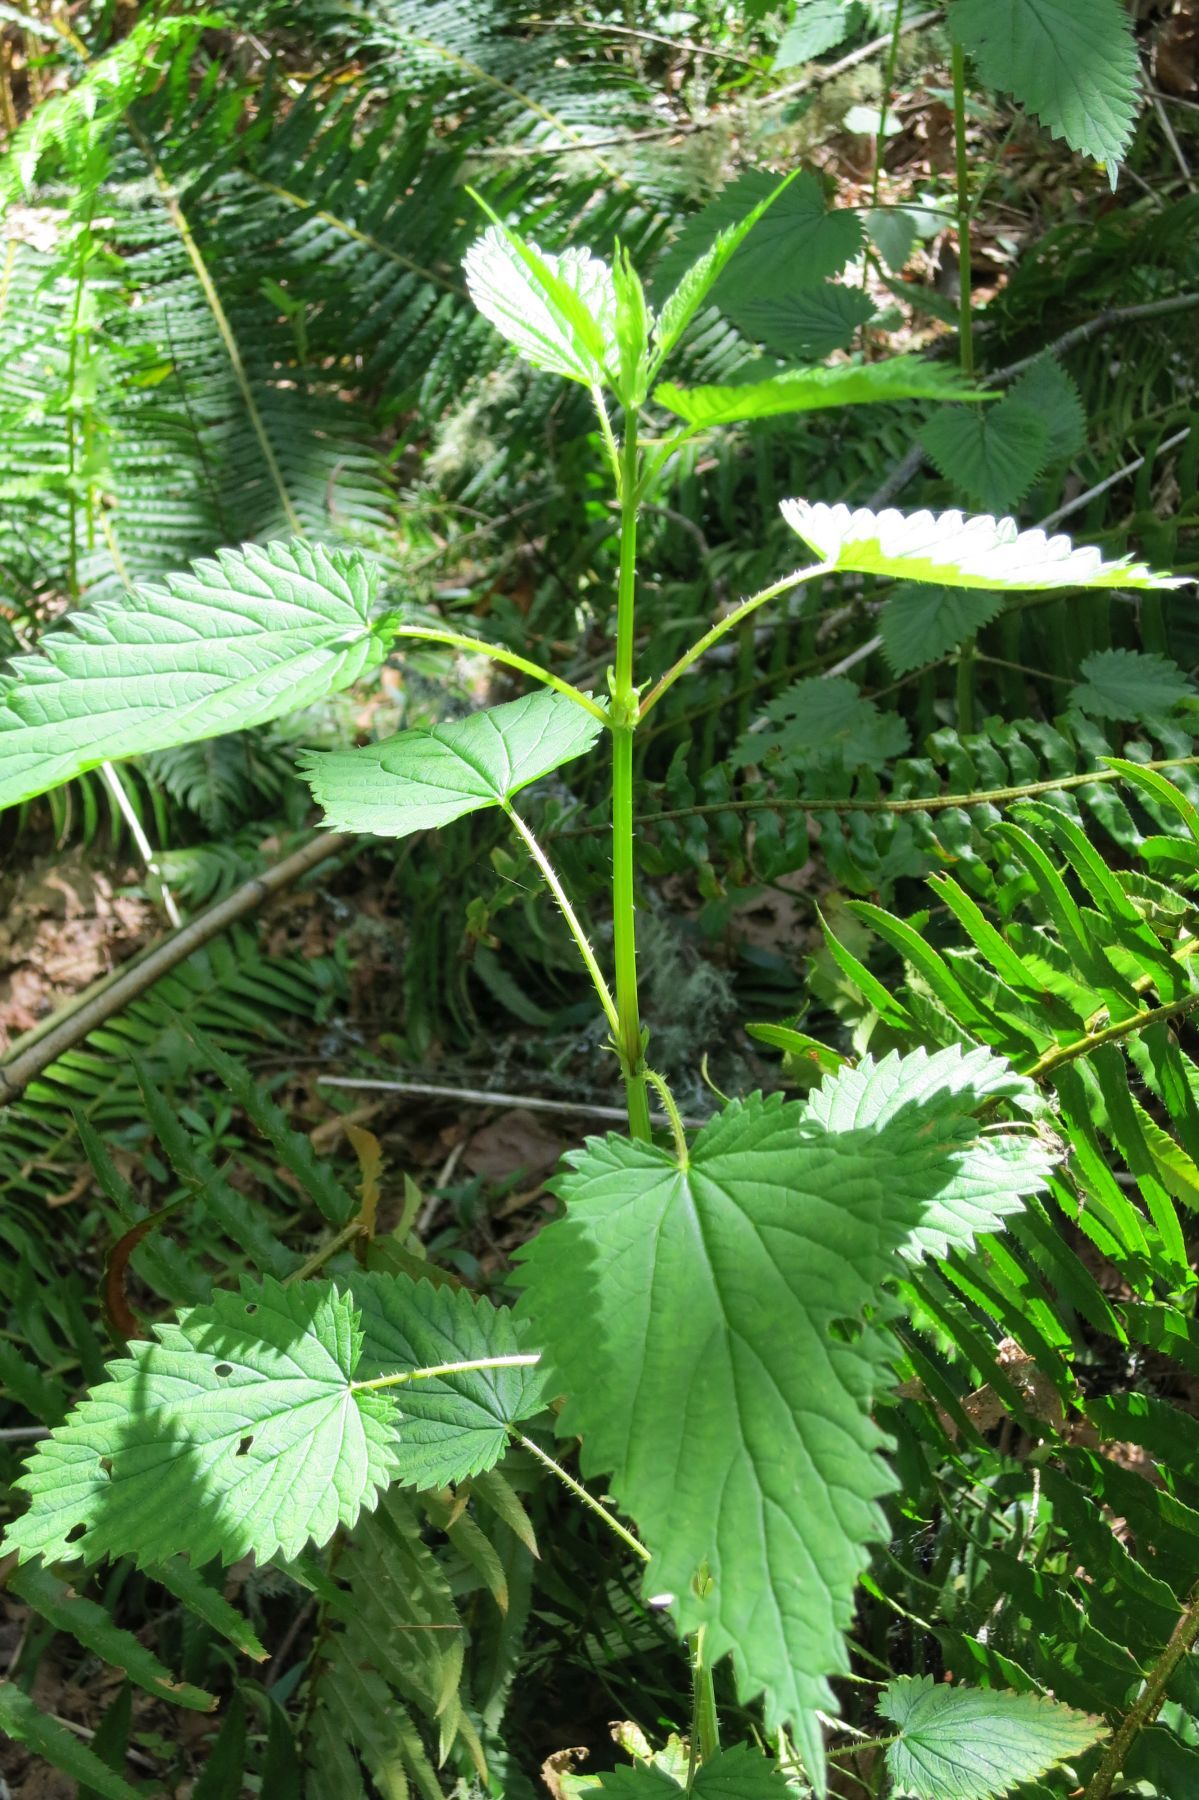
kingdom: Plantae
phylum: Tracheophyta
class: Magnoliopsida
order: Rosales
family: Urticaceae
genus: Urtica
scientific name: Urtica dioica
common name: Common nettle
